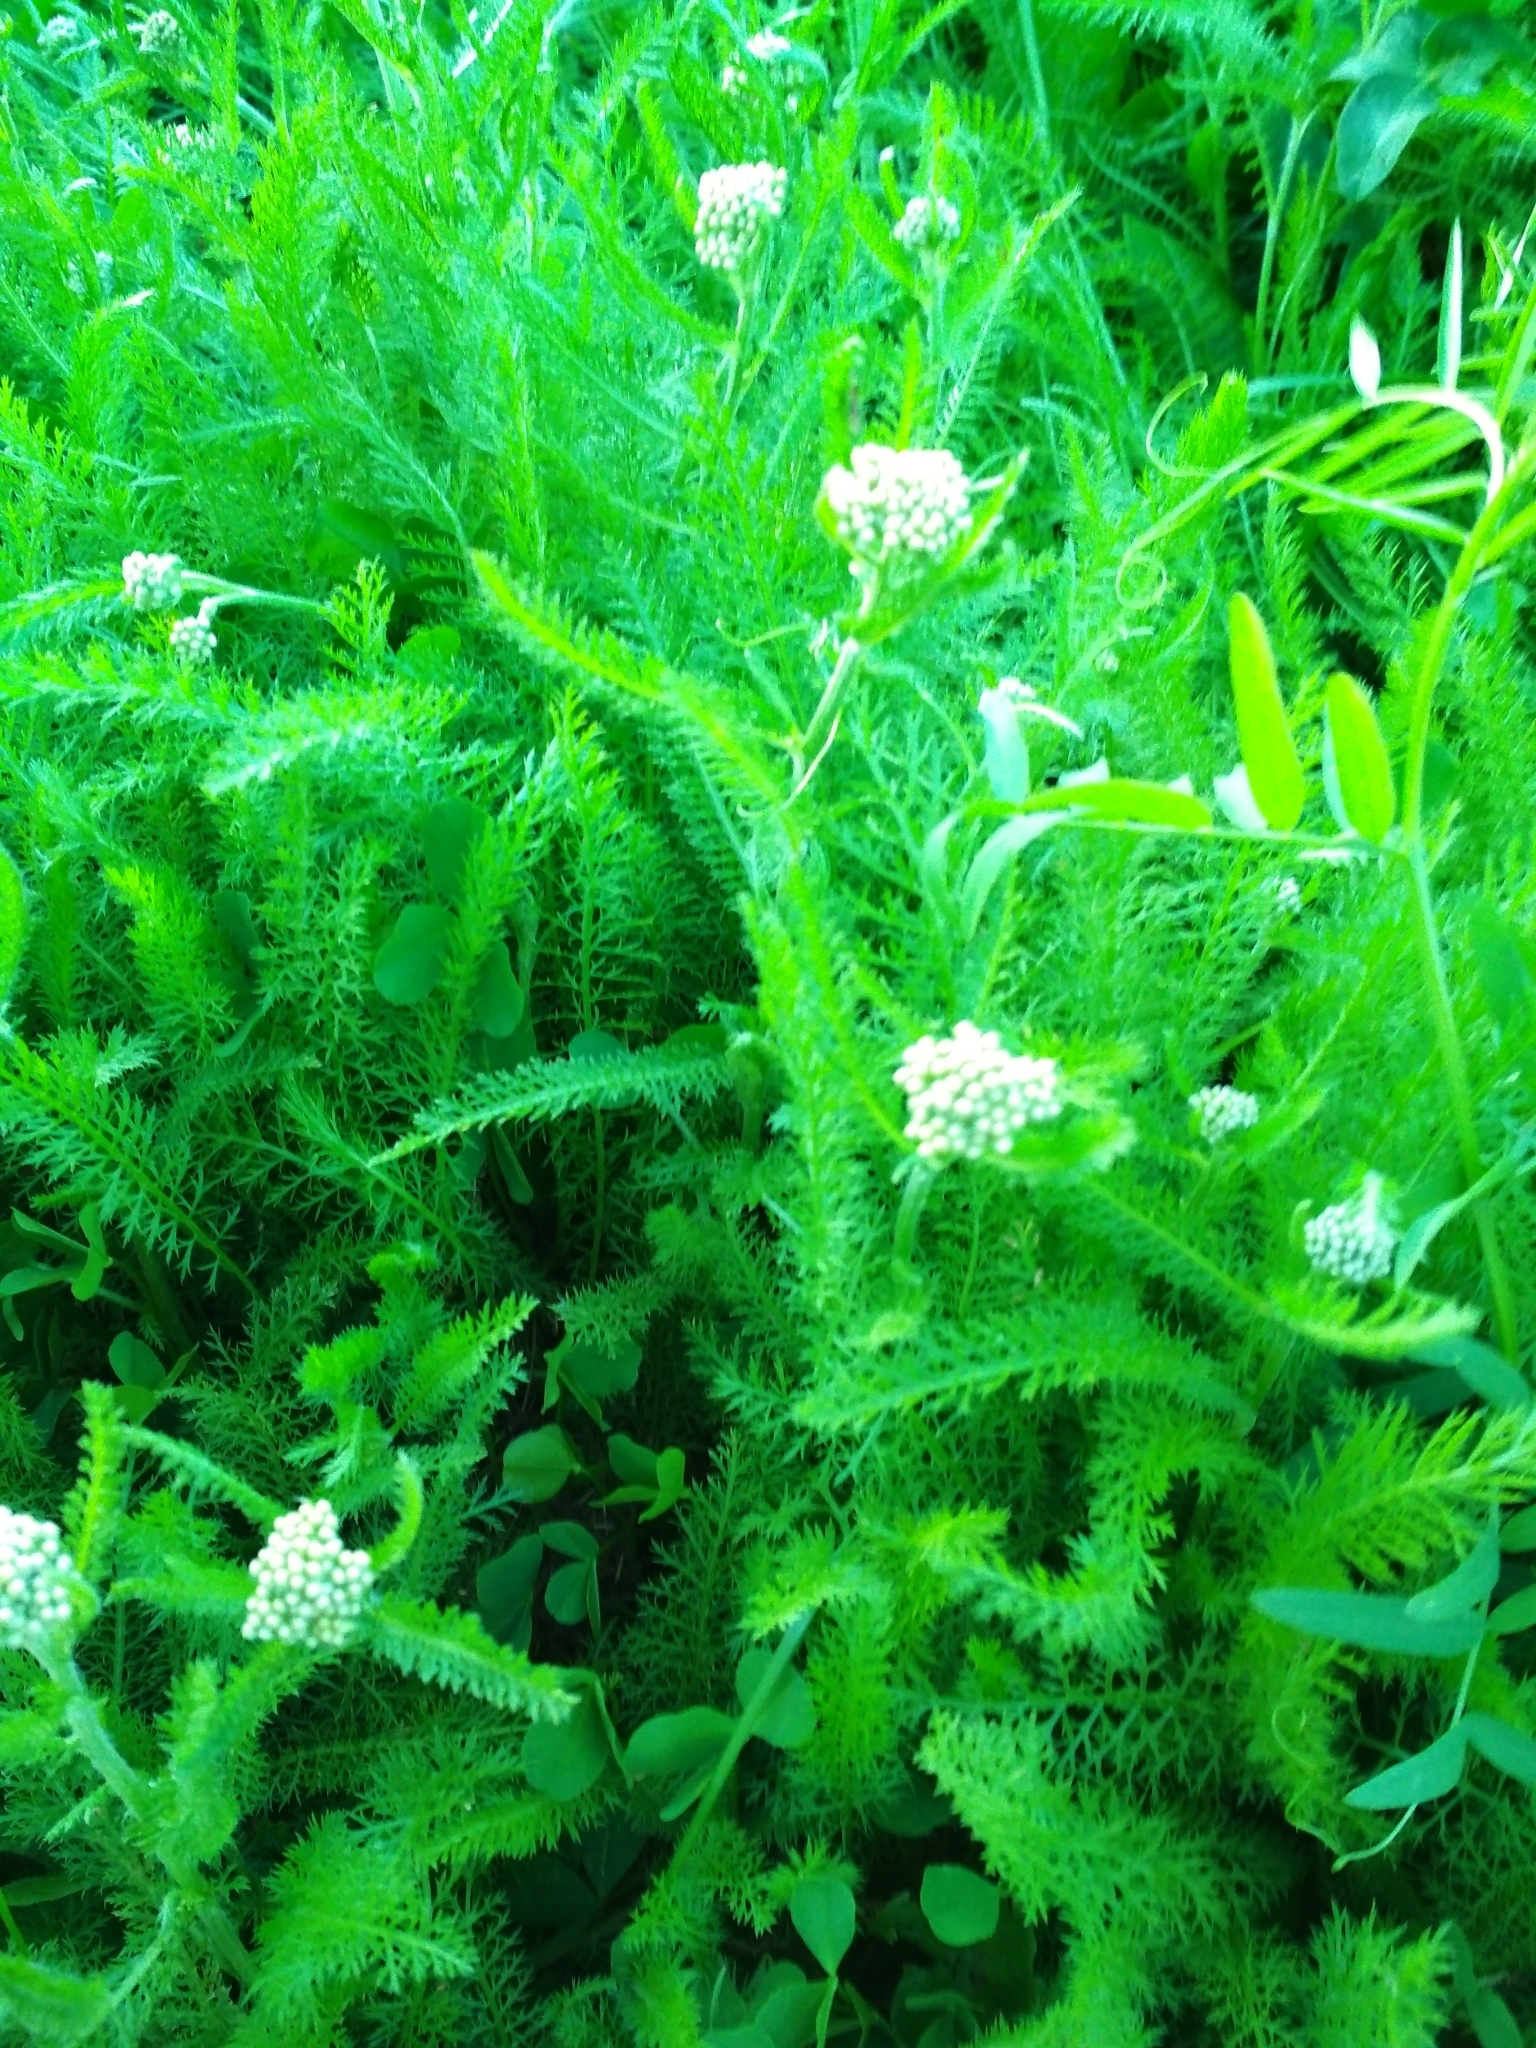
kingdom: Plantae
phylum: Tracheophyta
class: Magnoliopsida
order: Asterales
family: Asteraceae
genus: Achillea
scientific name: Achillea millefolium
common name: Yarrow
